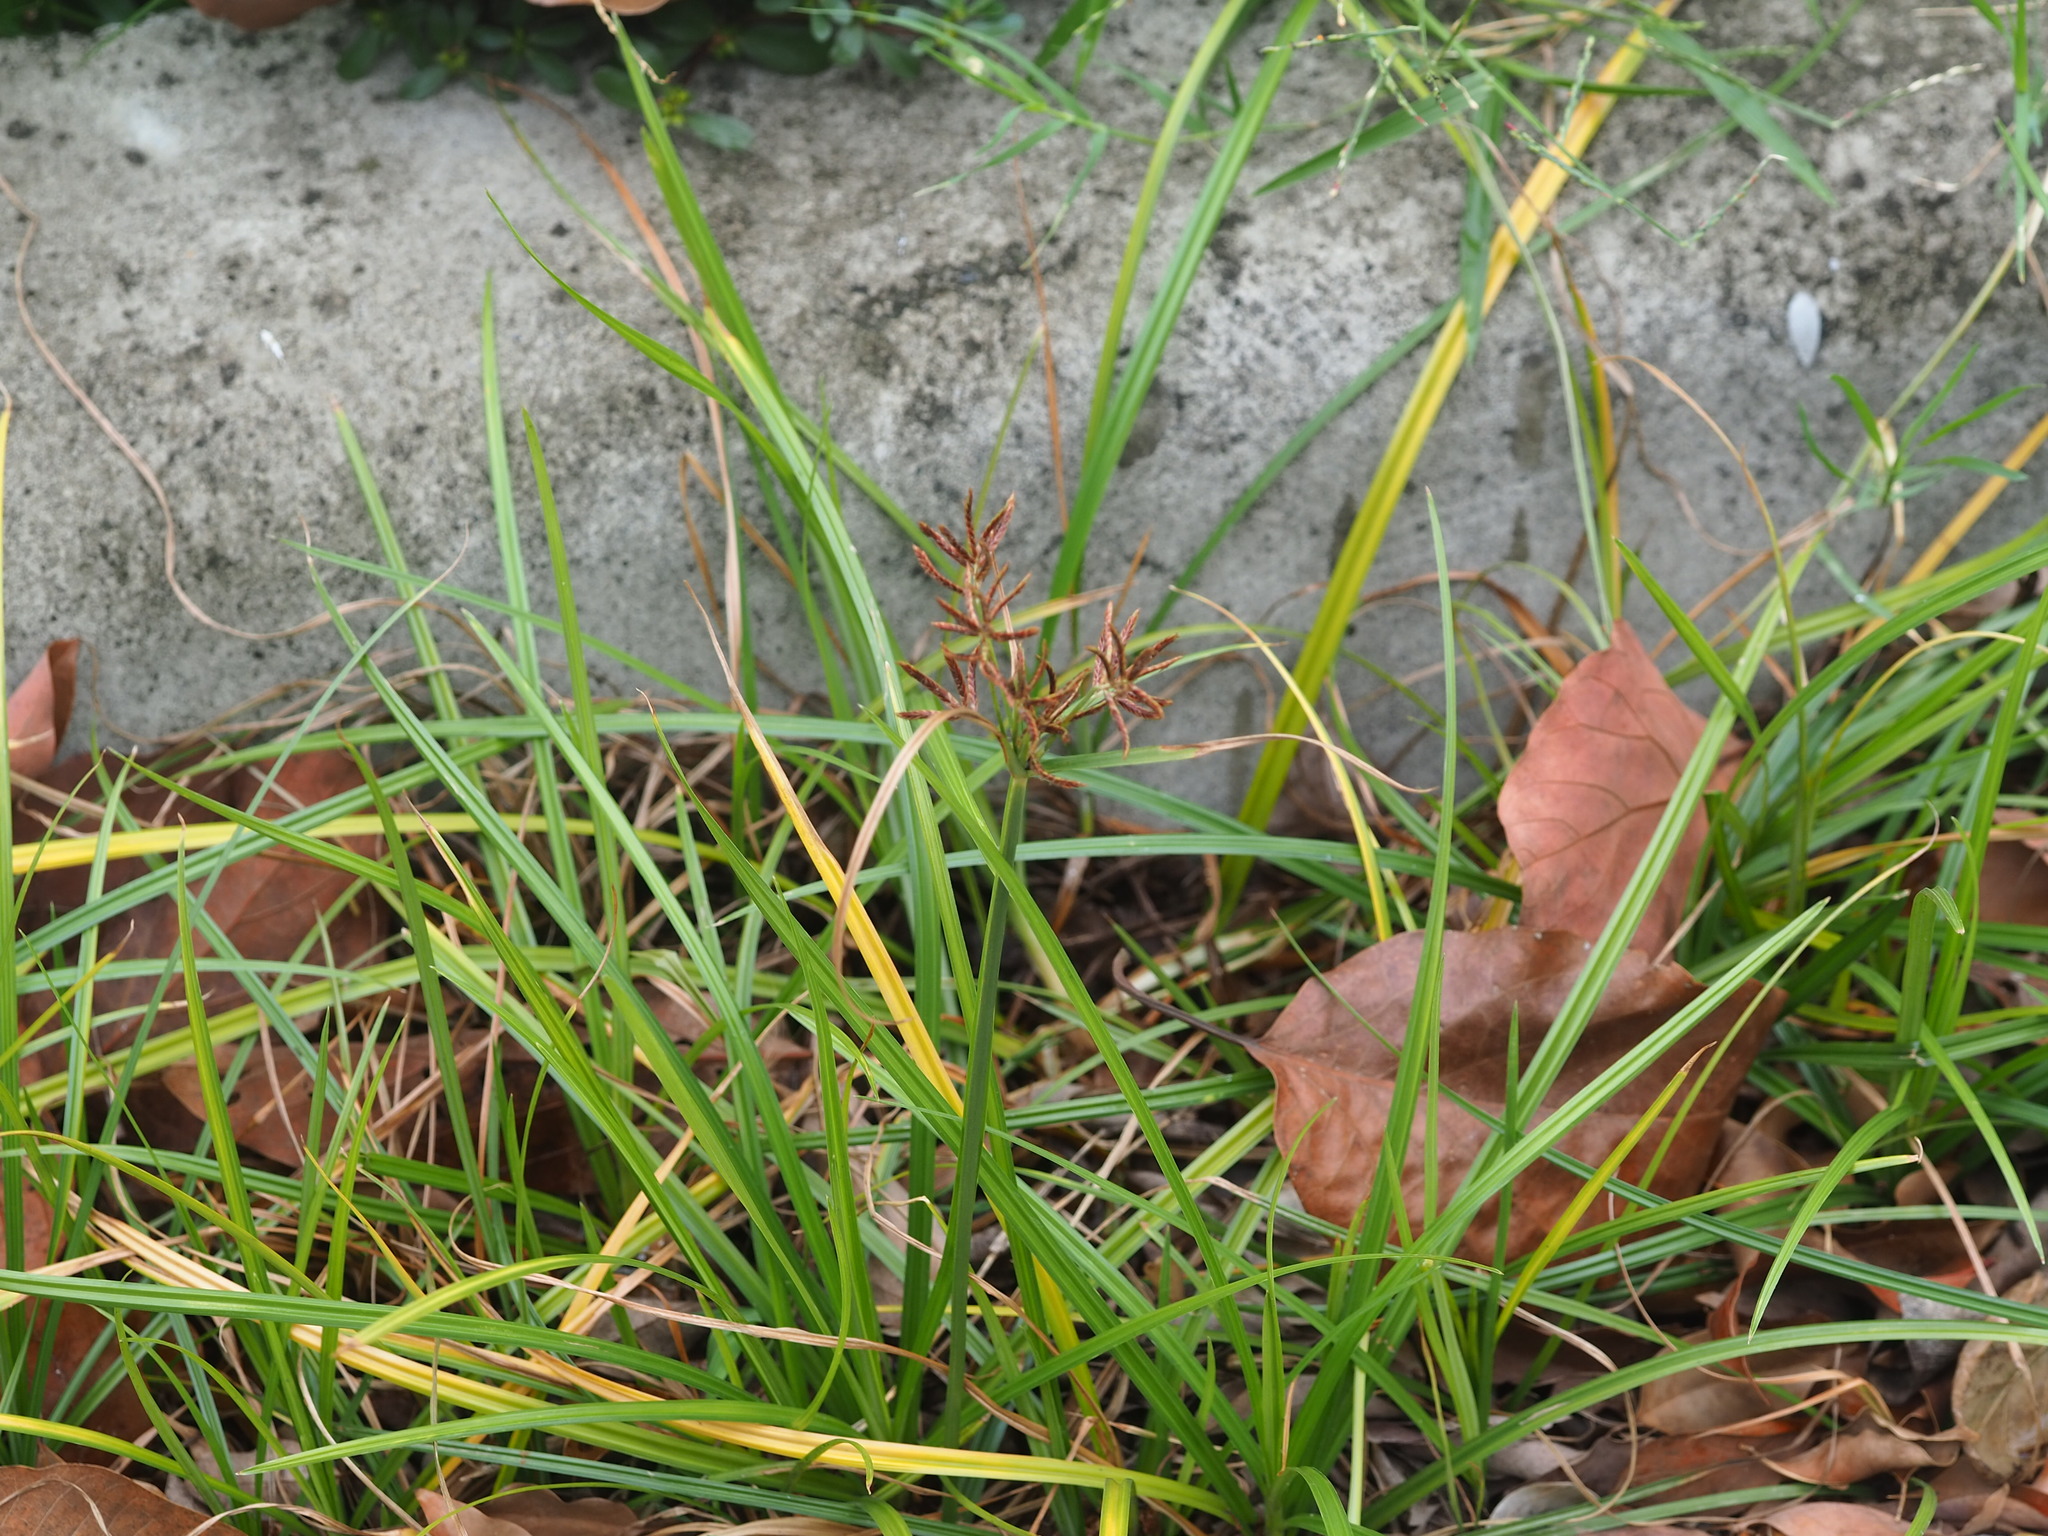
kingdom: Plantae
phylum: Tracheophyta
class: Liliopsida
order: Poales
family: Cyperaceae
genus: Cyperus
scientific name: Cyperus rotundus
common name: Nutgrass
